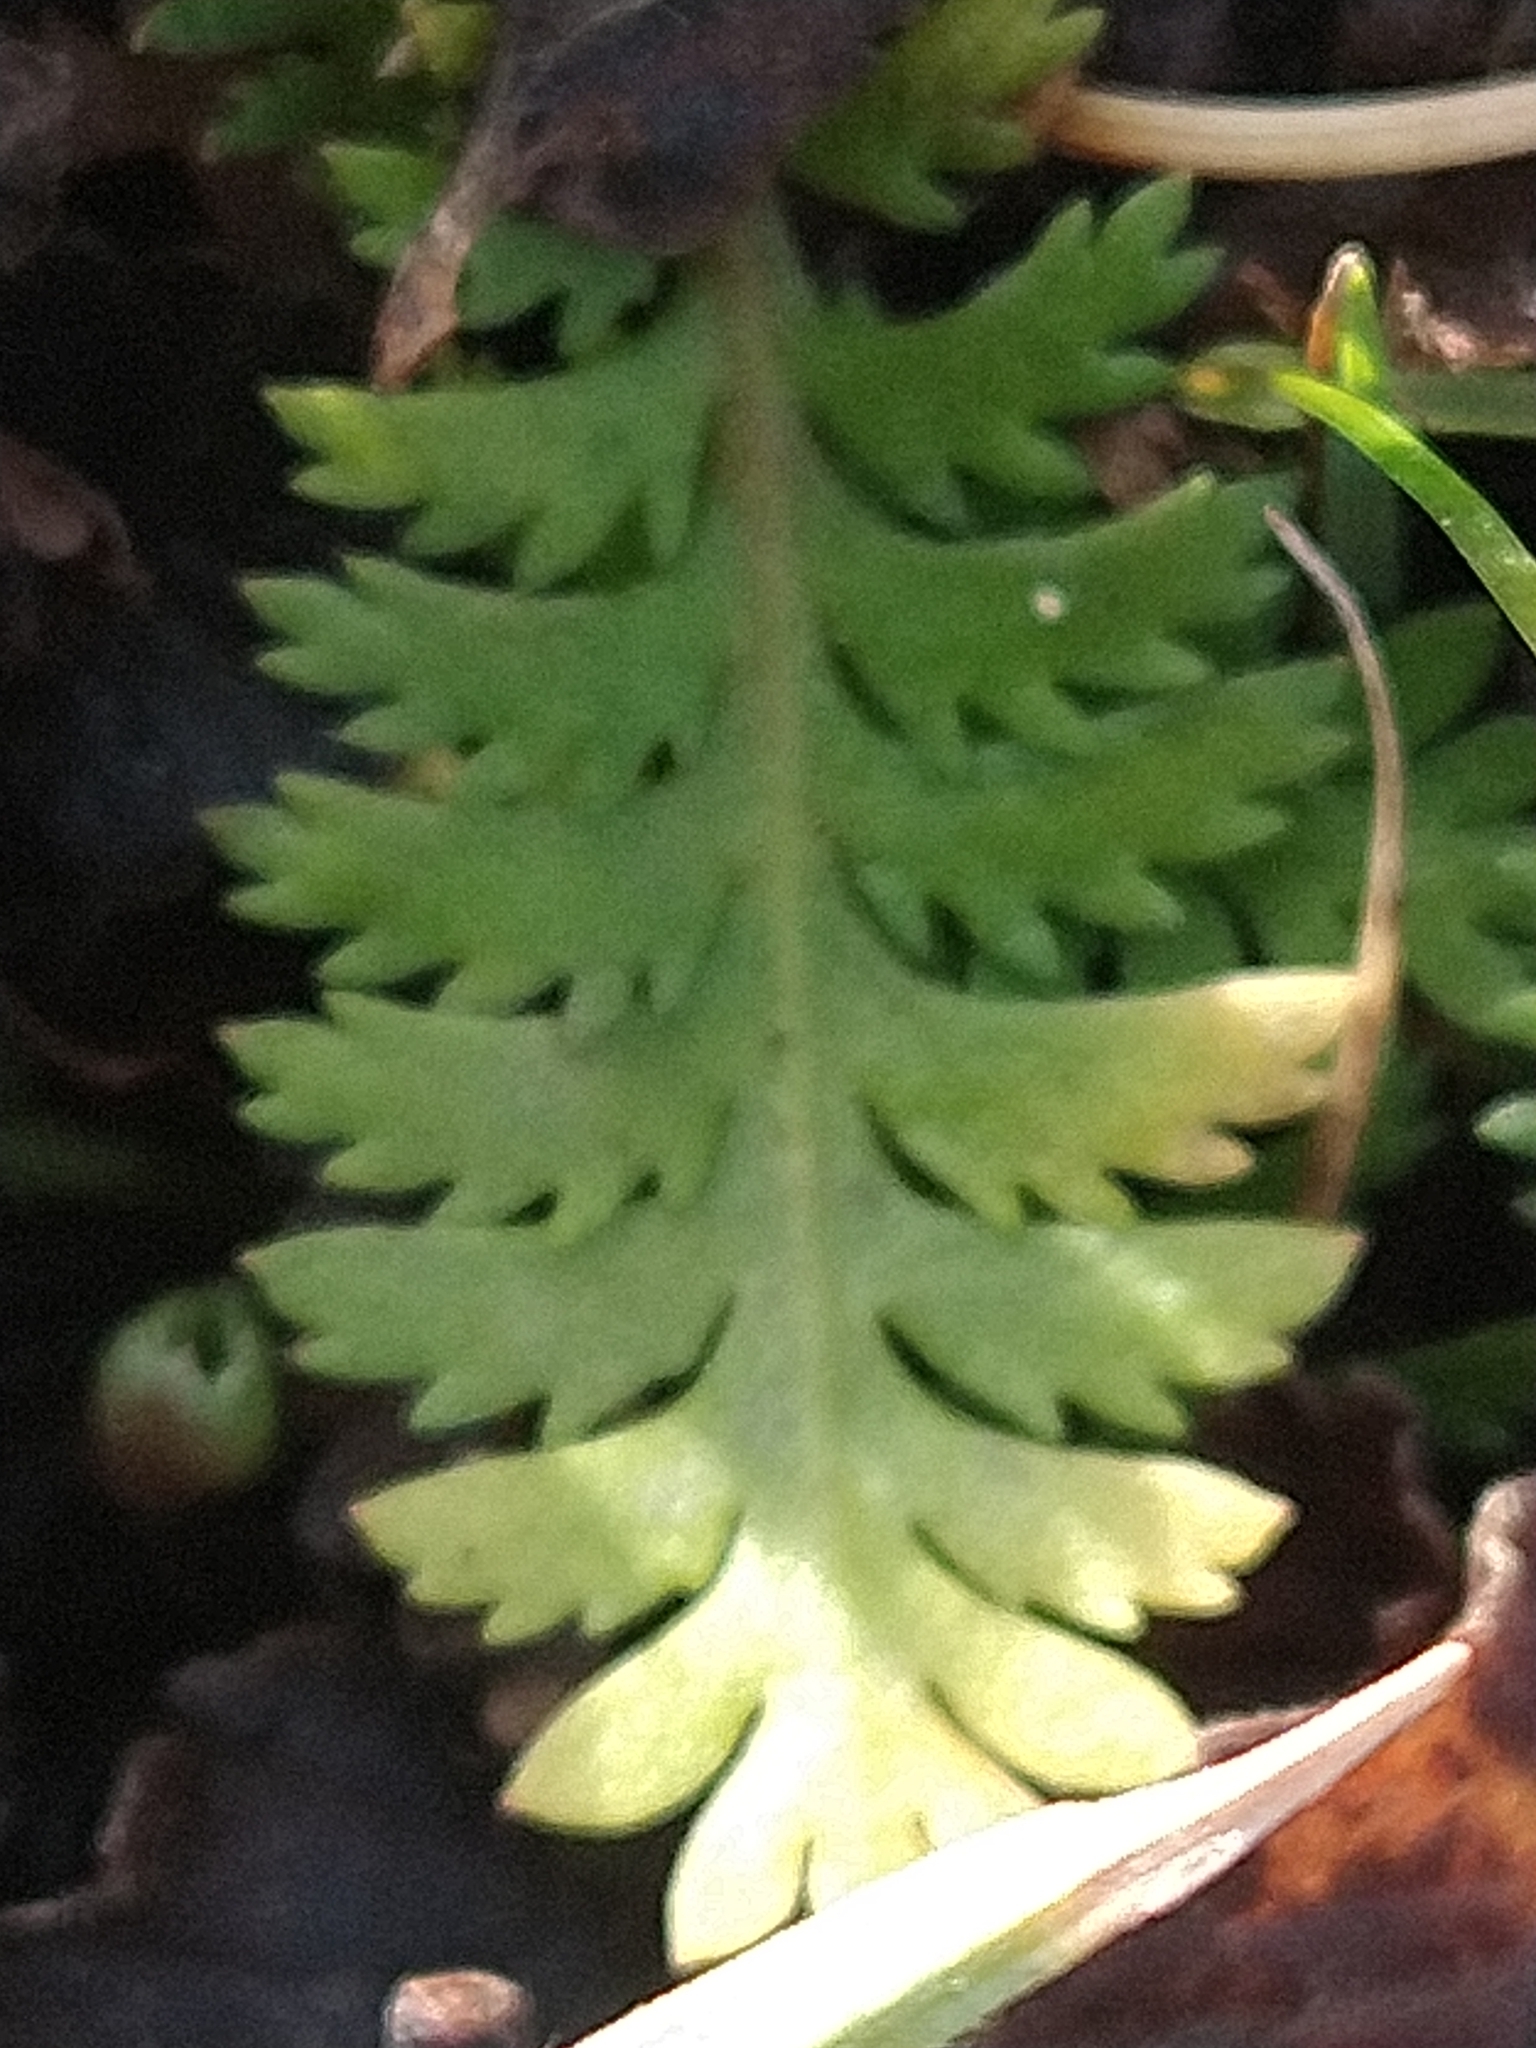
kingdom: Plantae
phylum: Tracheophyta
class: Magnoliopsida
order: Asterales
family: Asteraceae
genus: Leptinella
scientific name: Leptinella scariosa
